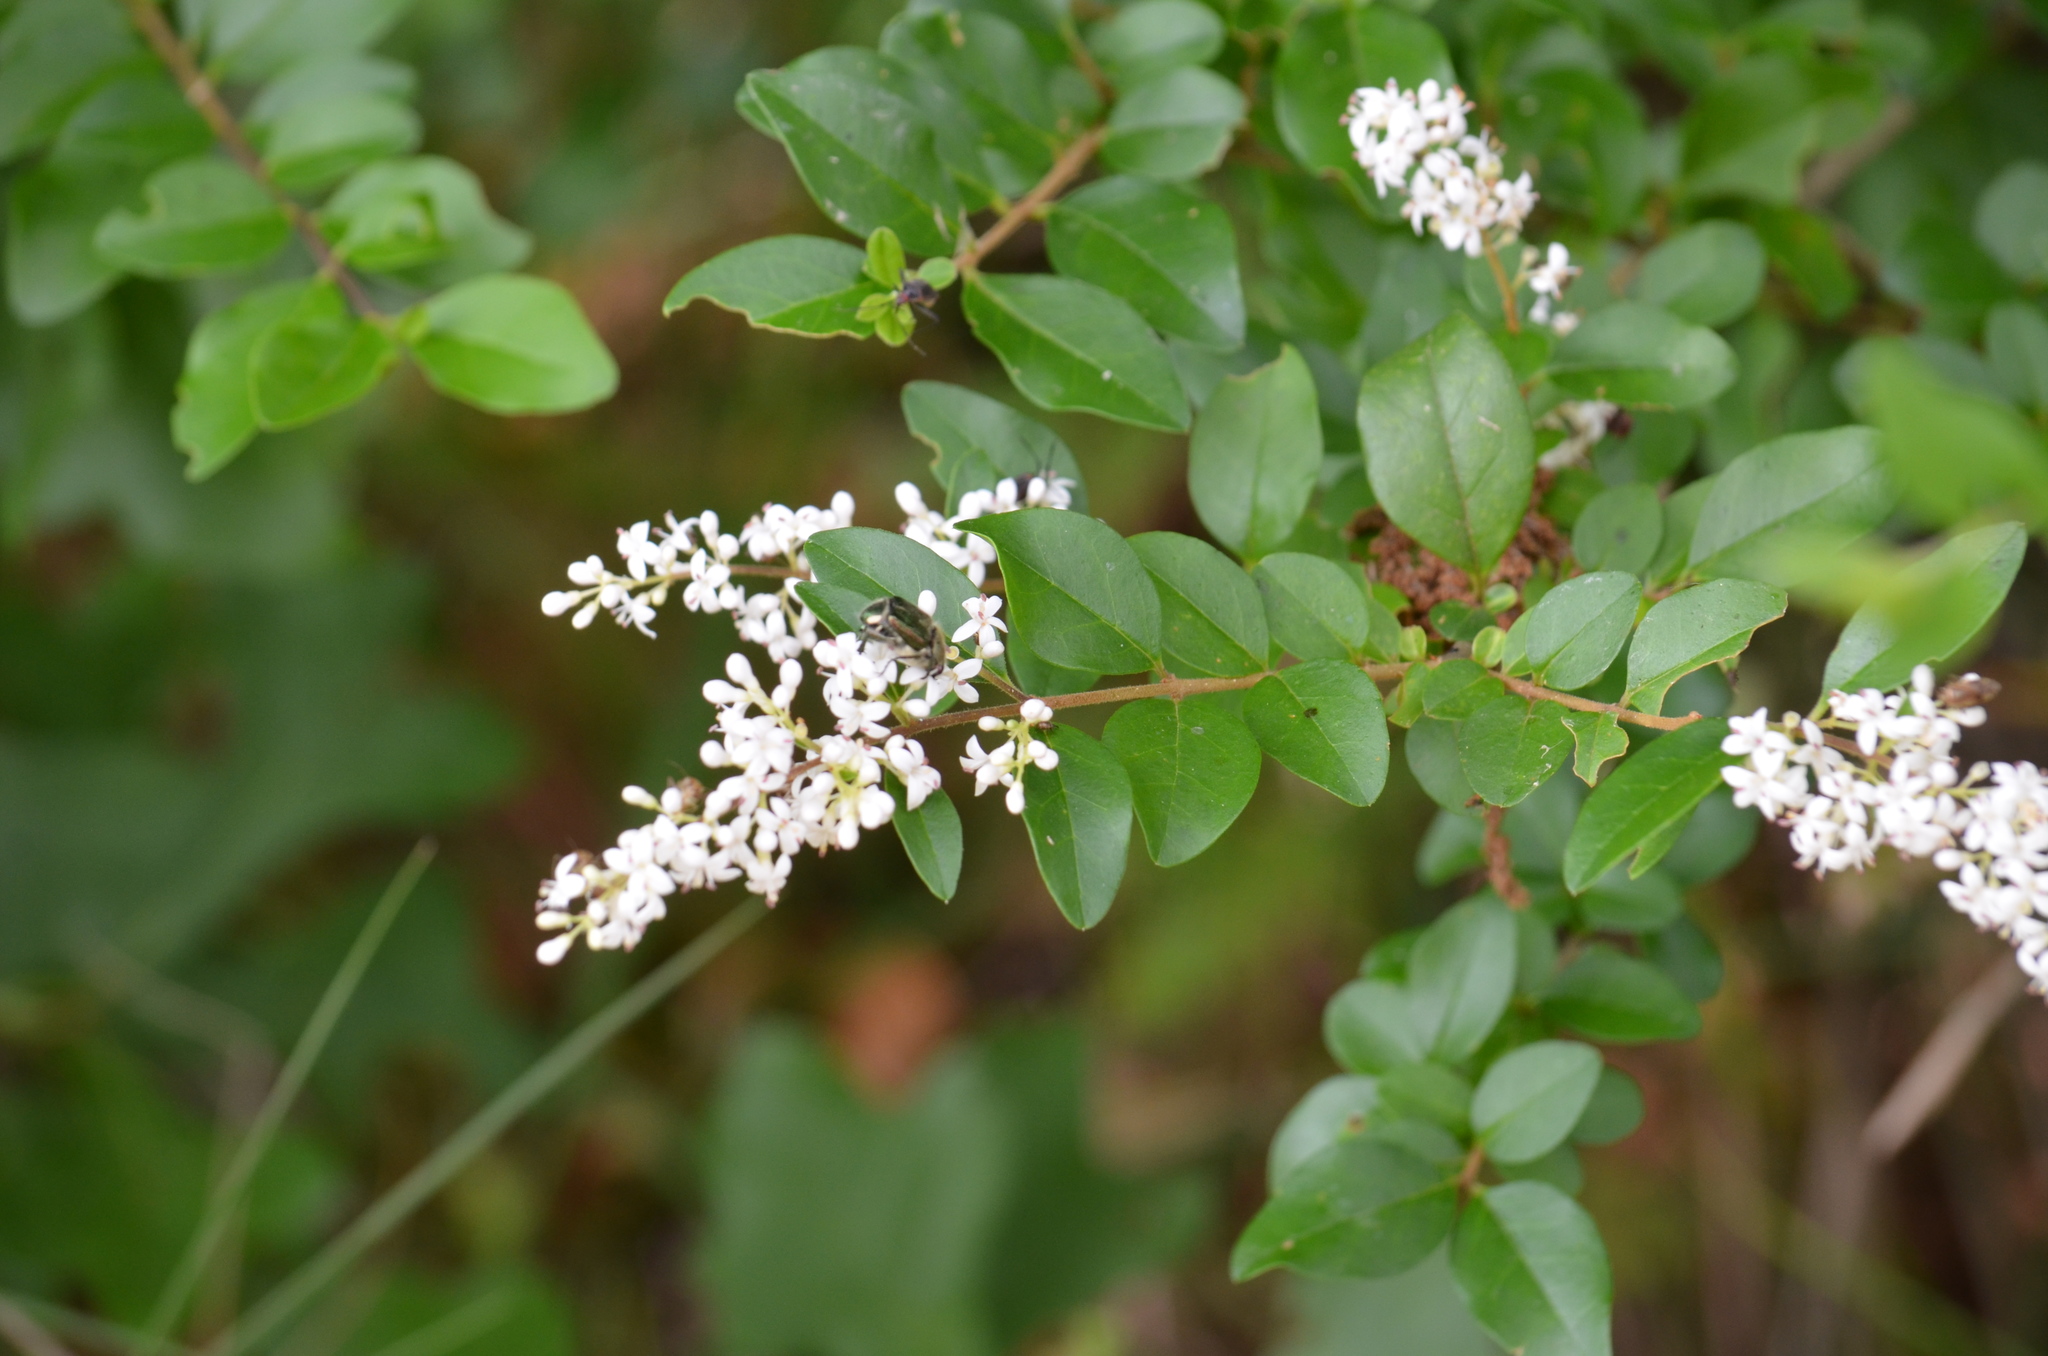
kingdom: Plantae
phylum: Tracheophyta
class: Magnoliopsida
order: Lamiales
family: Oleaceae
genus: Ligustrum
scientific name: Ligustrum sinense
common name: Chinese privet
